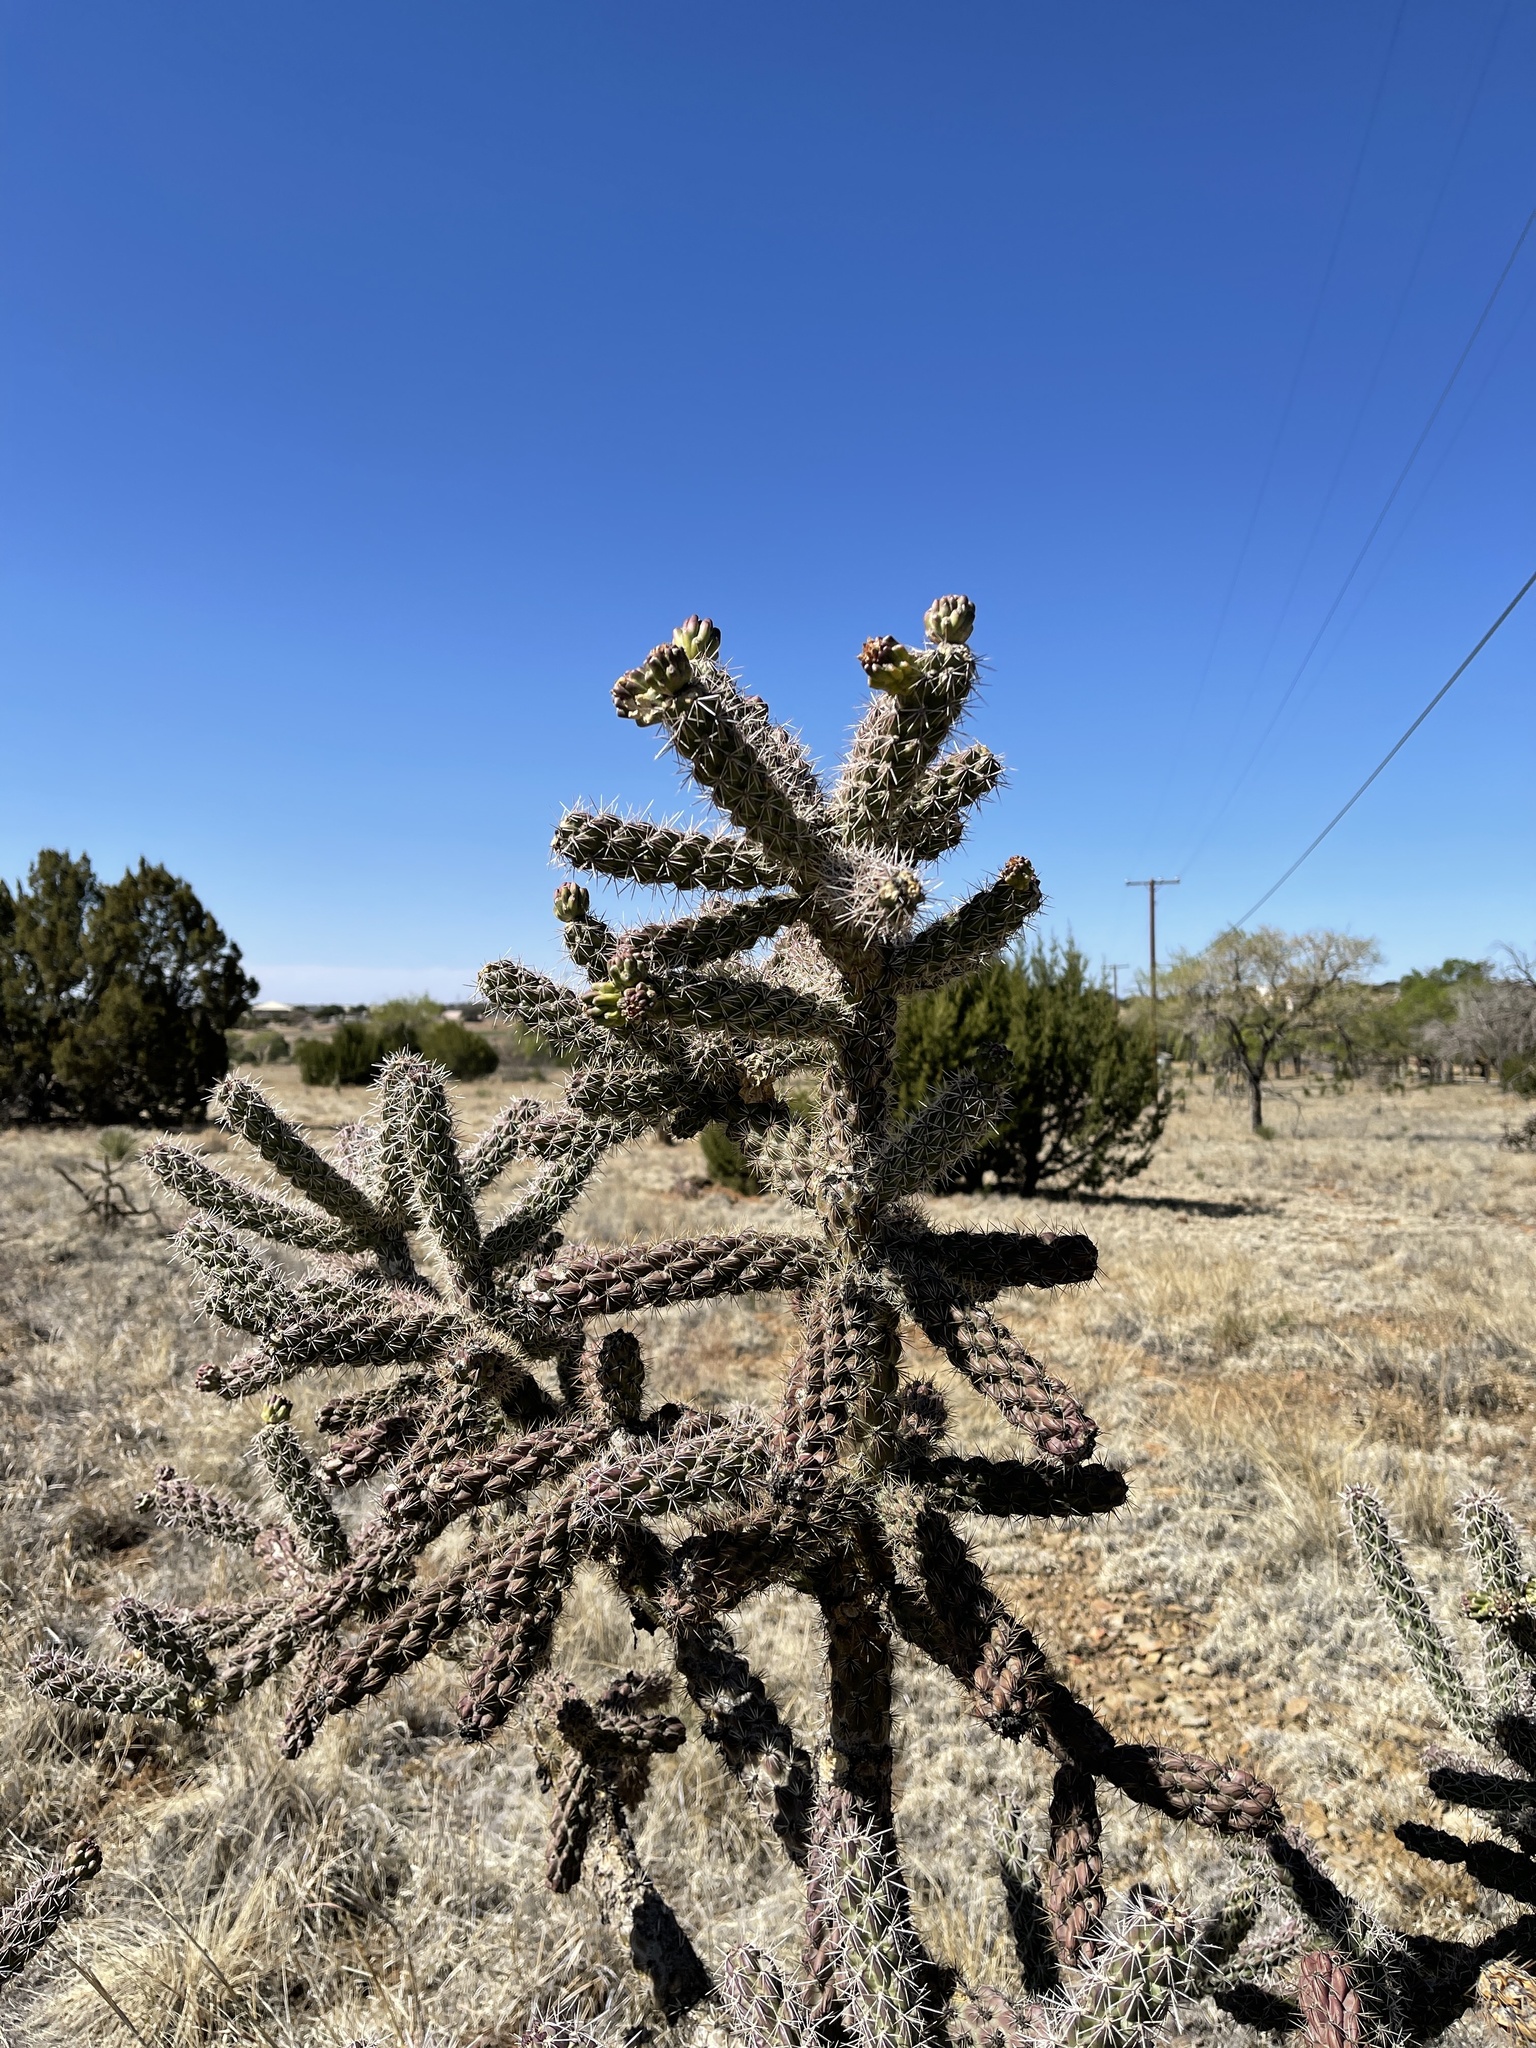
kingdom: Plantae
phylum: Tracheophyta
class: Magnoliopsida
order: Caryophyllales
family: Cactaceae
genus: Cylindropuntia
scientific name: Cylindropuntia imbricata
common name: Candelabrum cactus
